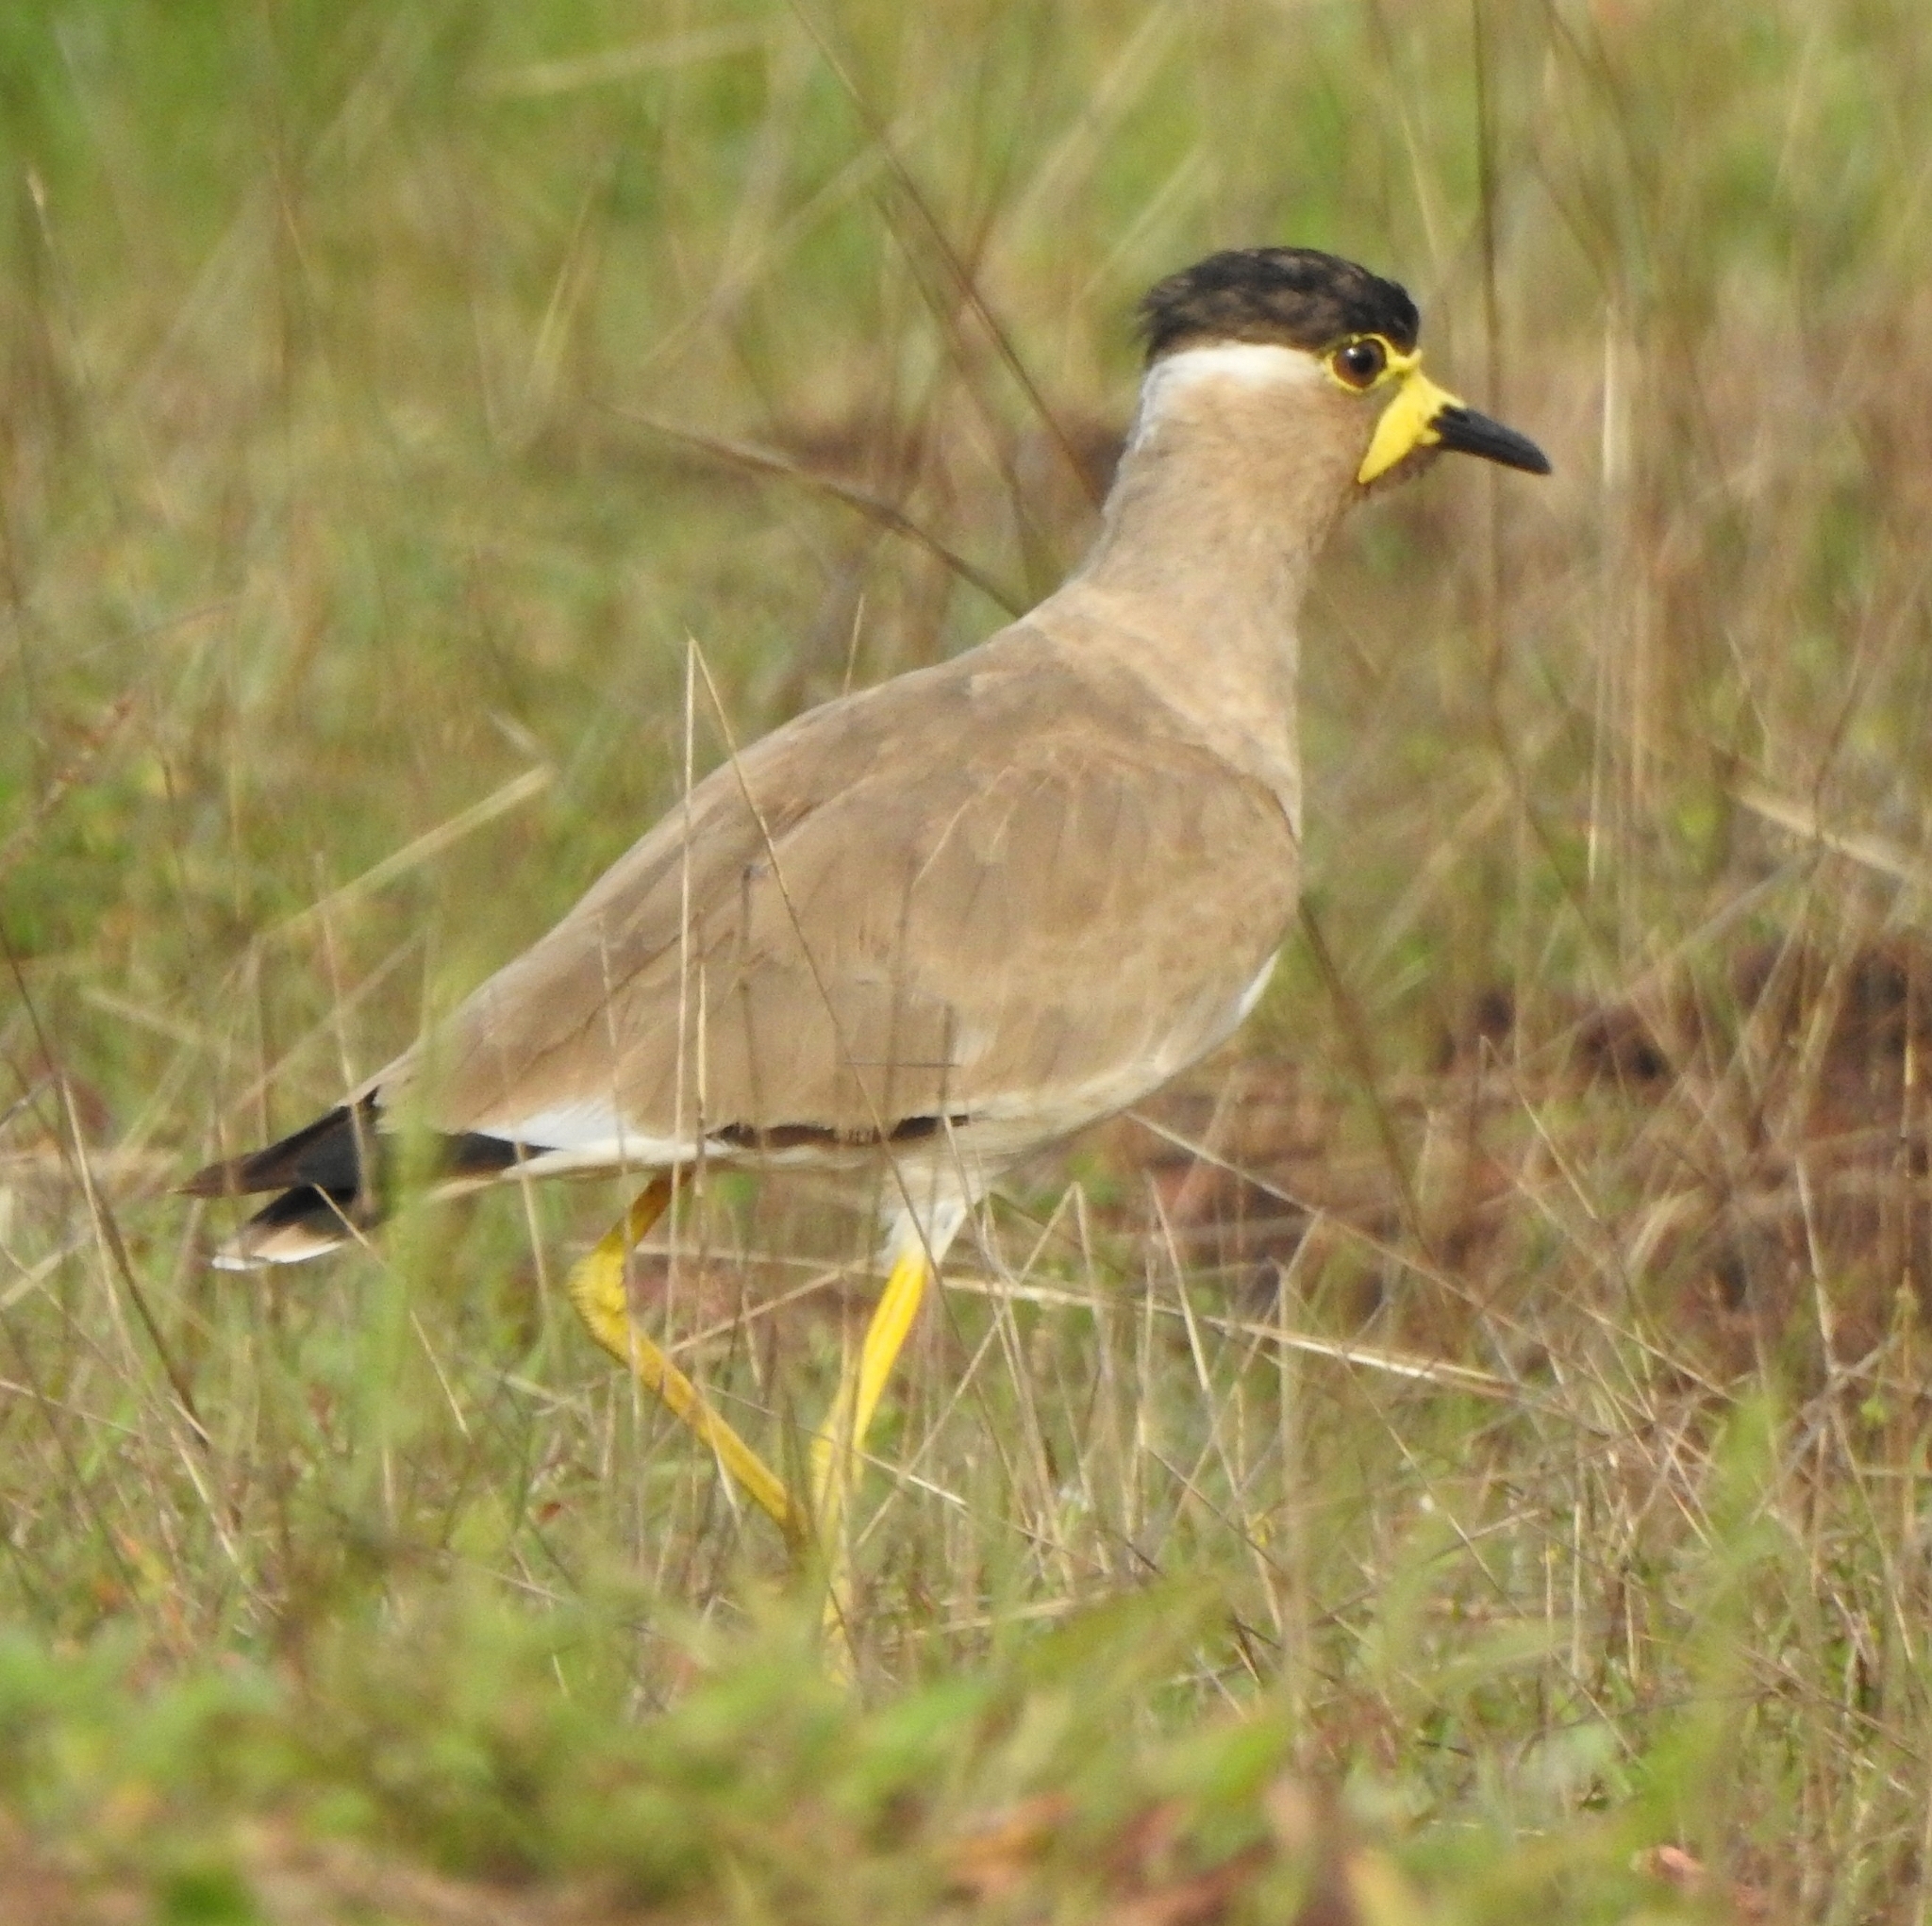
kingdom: Animalia
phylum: Chordata
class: Aves
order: Charadriiformes
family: Charadriidae
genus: Vanellus
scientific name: Vanellus malabaricus
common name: Yellow-wattled lapwing
